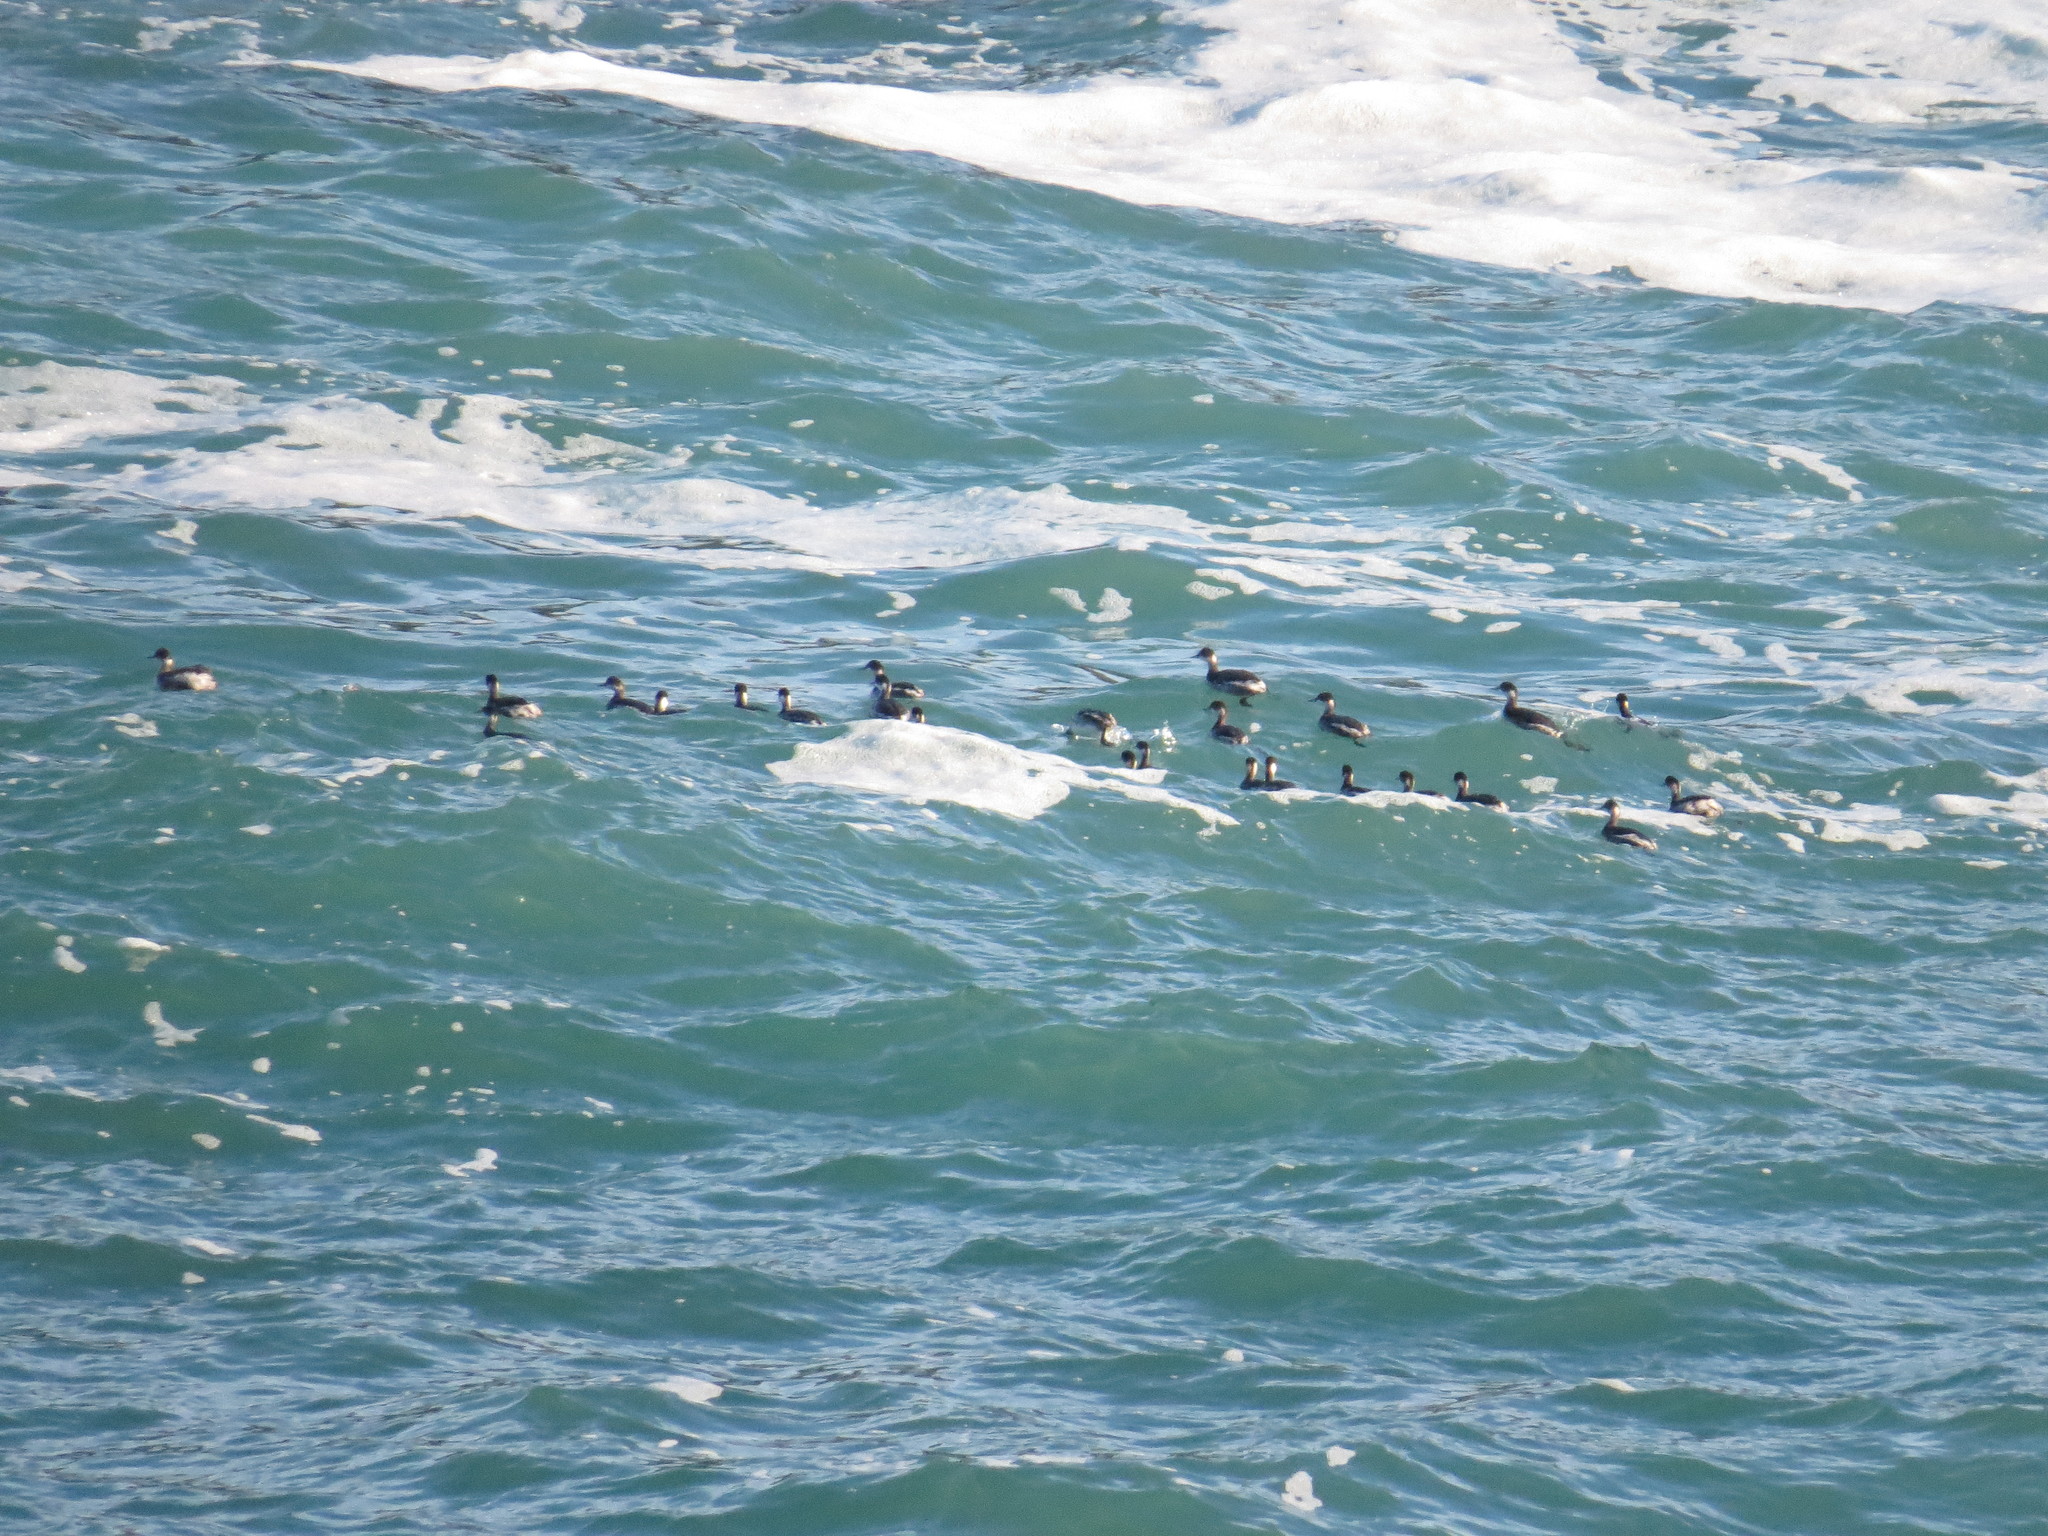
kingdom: Animalia
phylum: Chordata
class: Aves
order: Podicipediformes
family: Podicipedidae
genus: Podiceps
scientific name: Podiceps nigricollis
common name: Black-necked grebe
